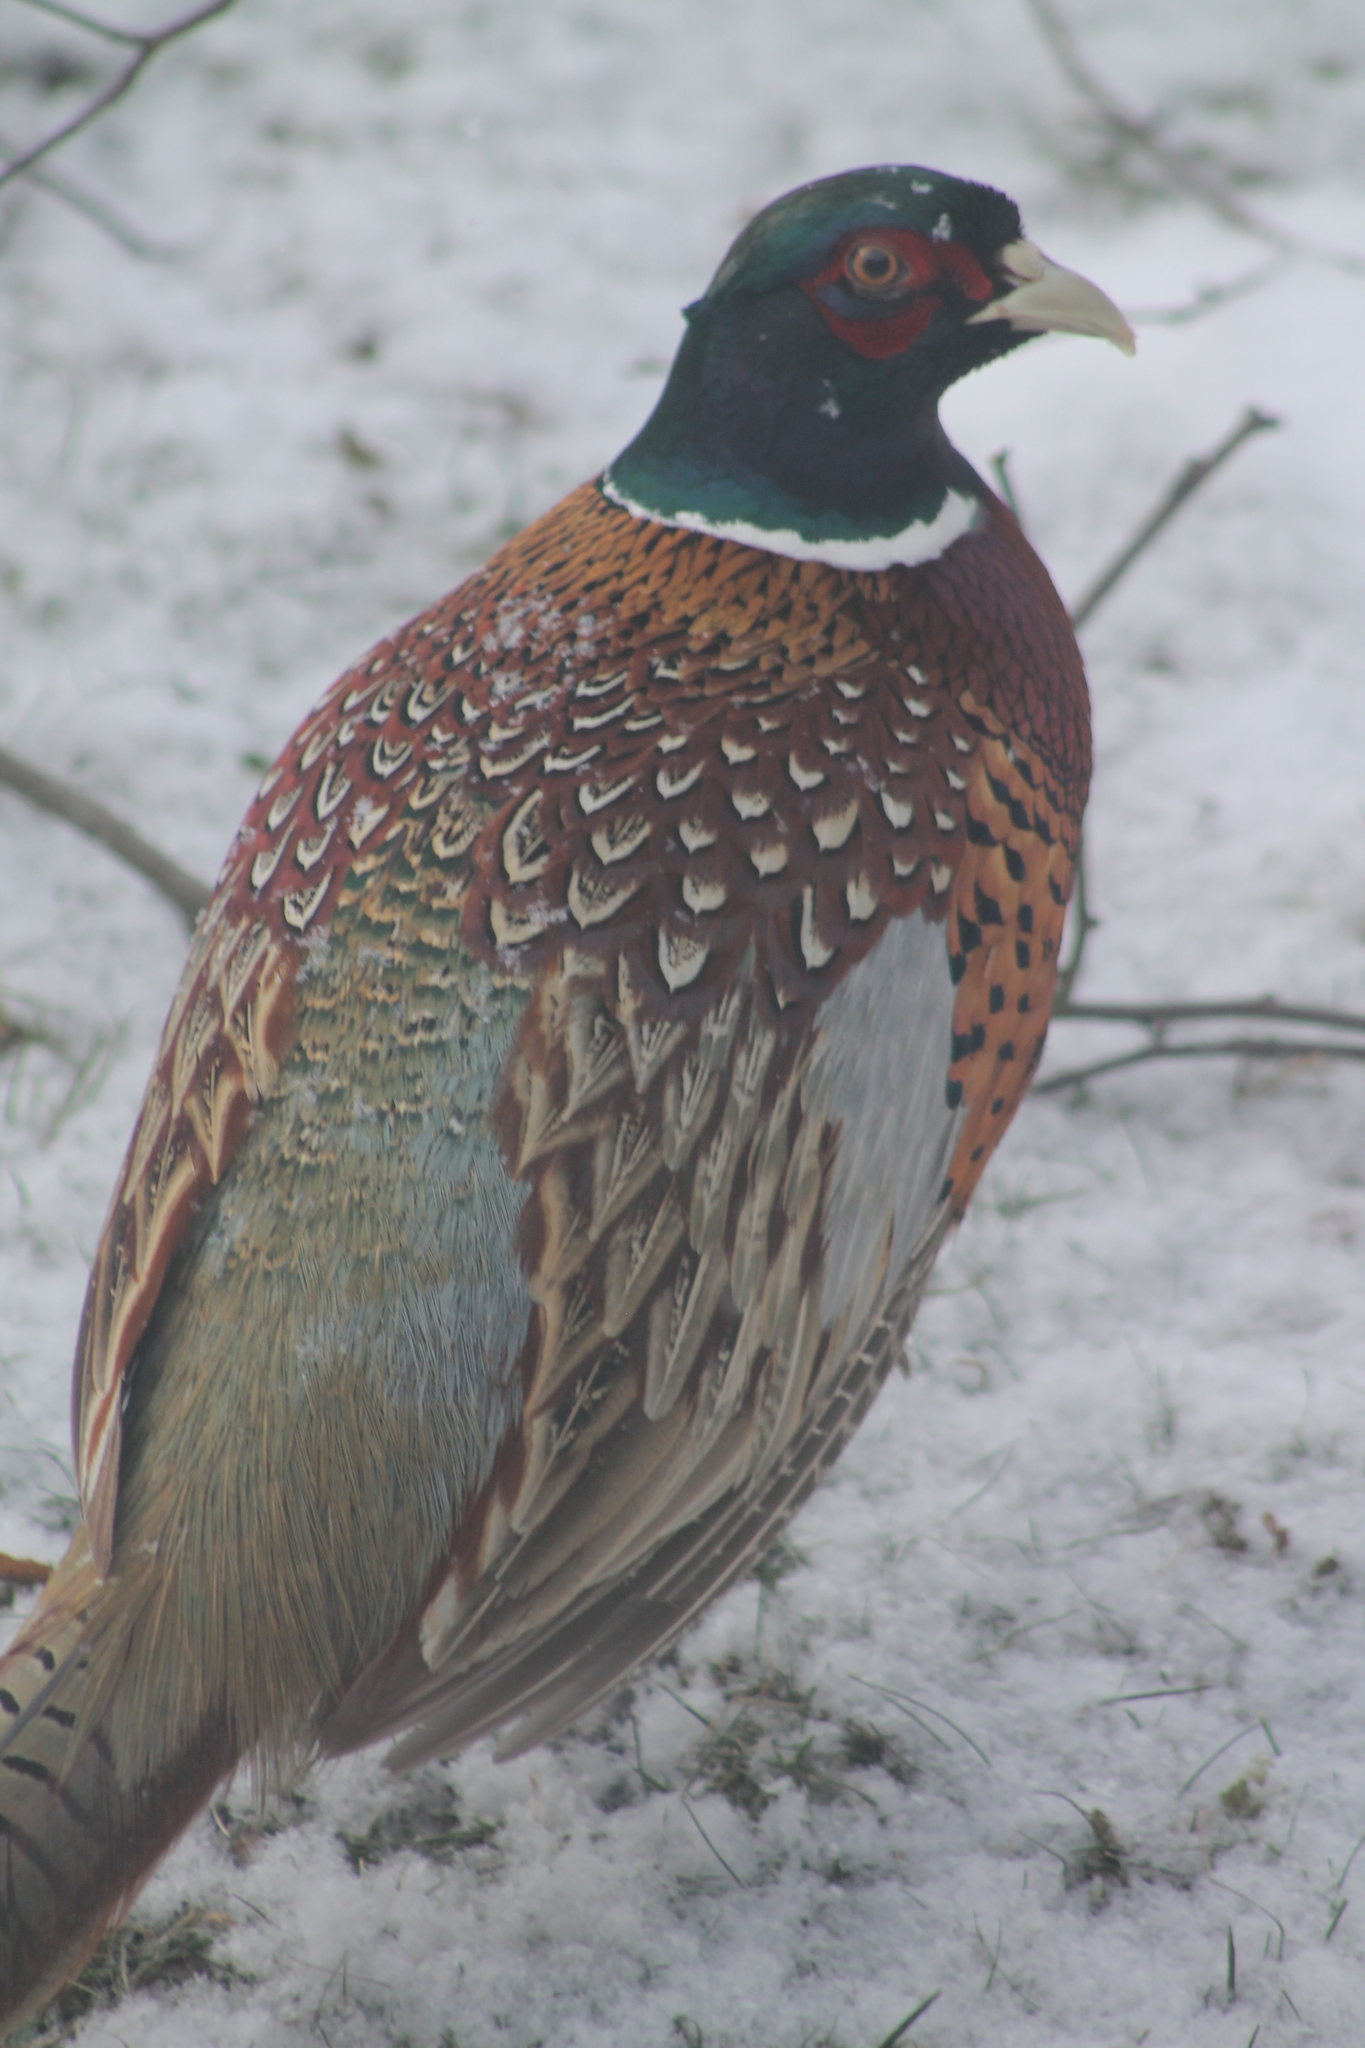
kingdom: Animalia
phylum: Chordata
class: Aves
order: Galliformes
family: Phasianidae
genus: Phasianus
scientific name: Phasianus colchicus
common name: Common pheasant
